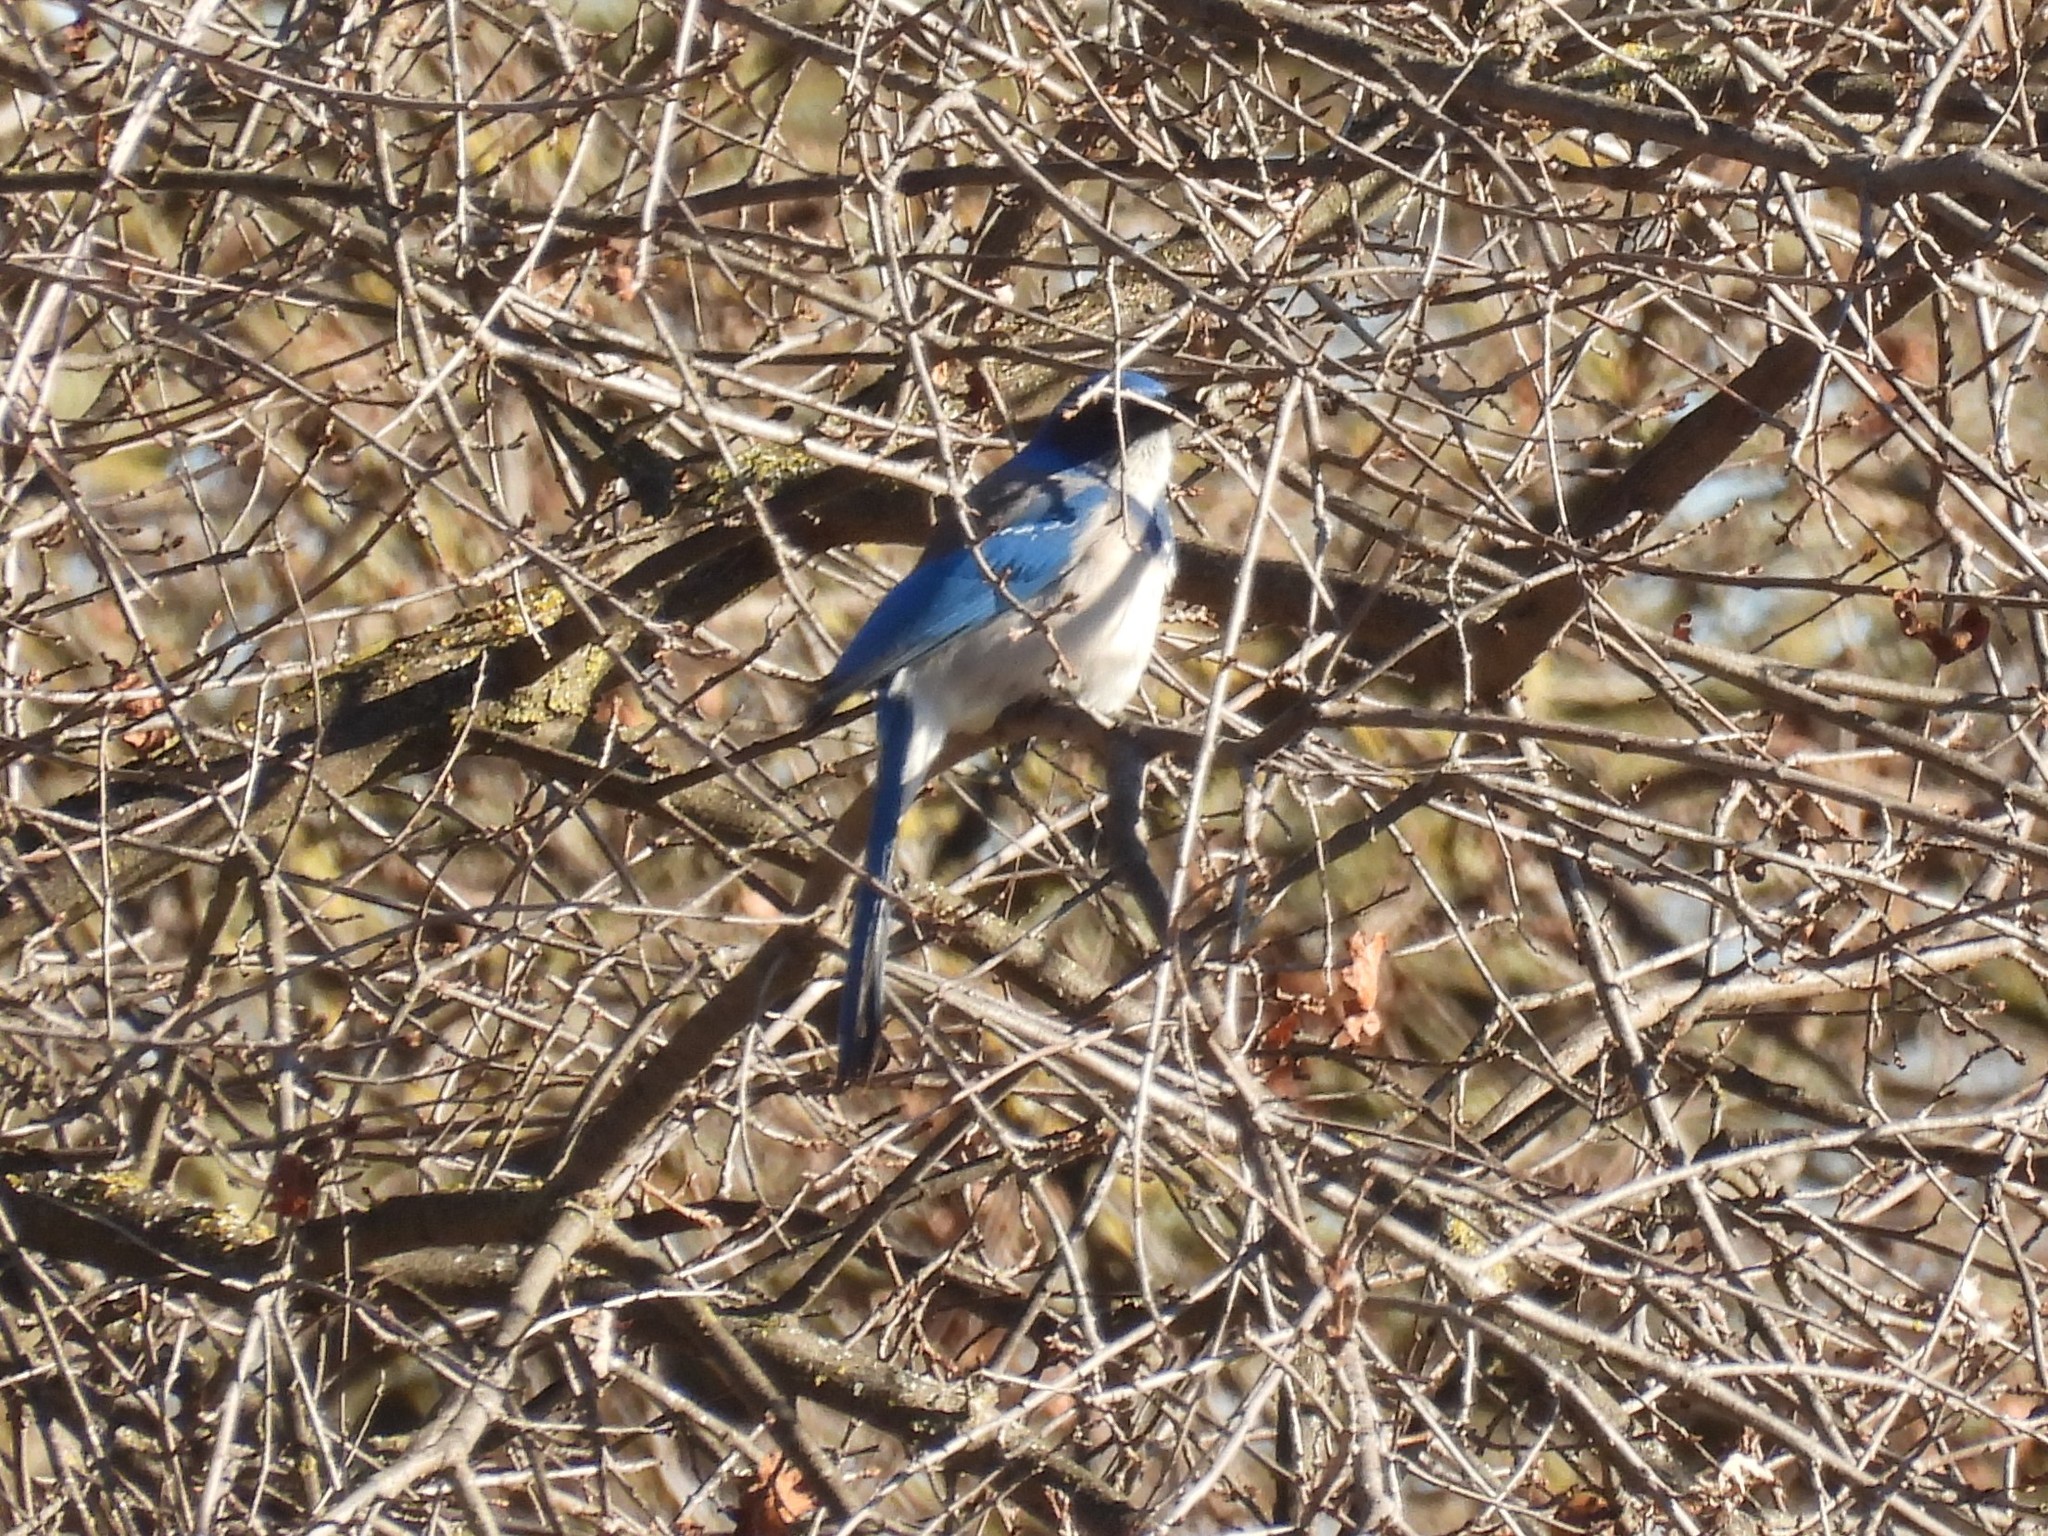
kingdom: Animalia
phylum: Chordata
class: Aves
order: Passeriformes
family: Corvidae
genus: Aphelocoma
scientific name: Aphelocoma californica
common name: California scrub-jay
